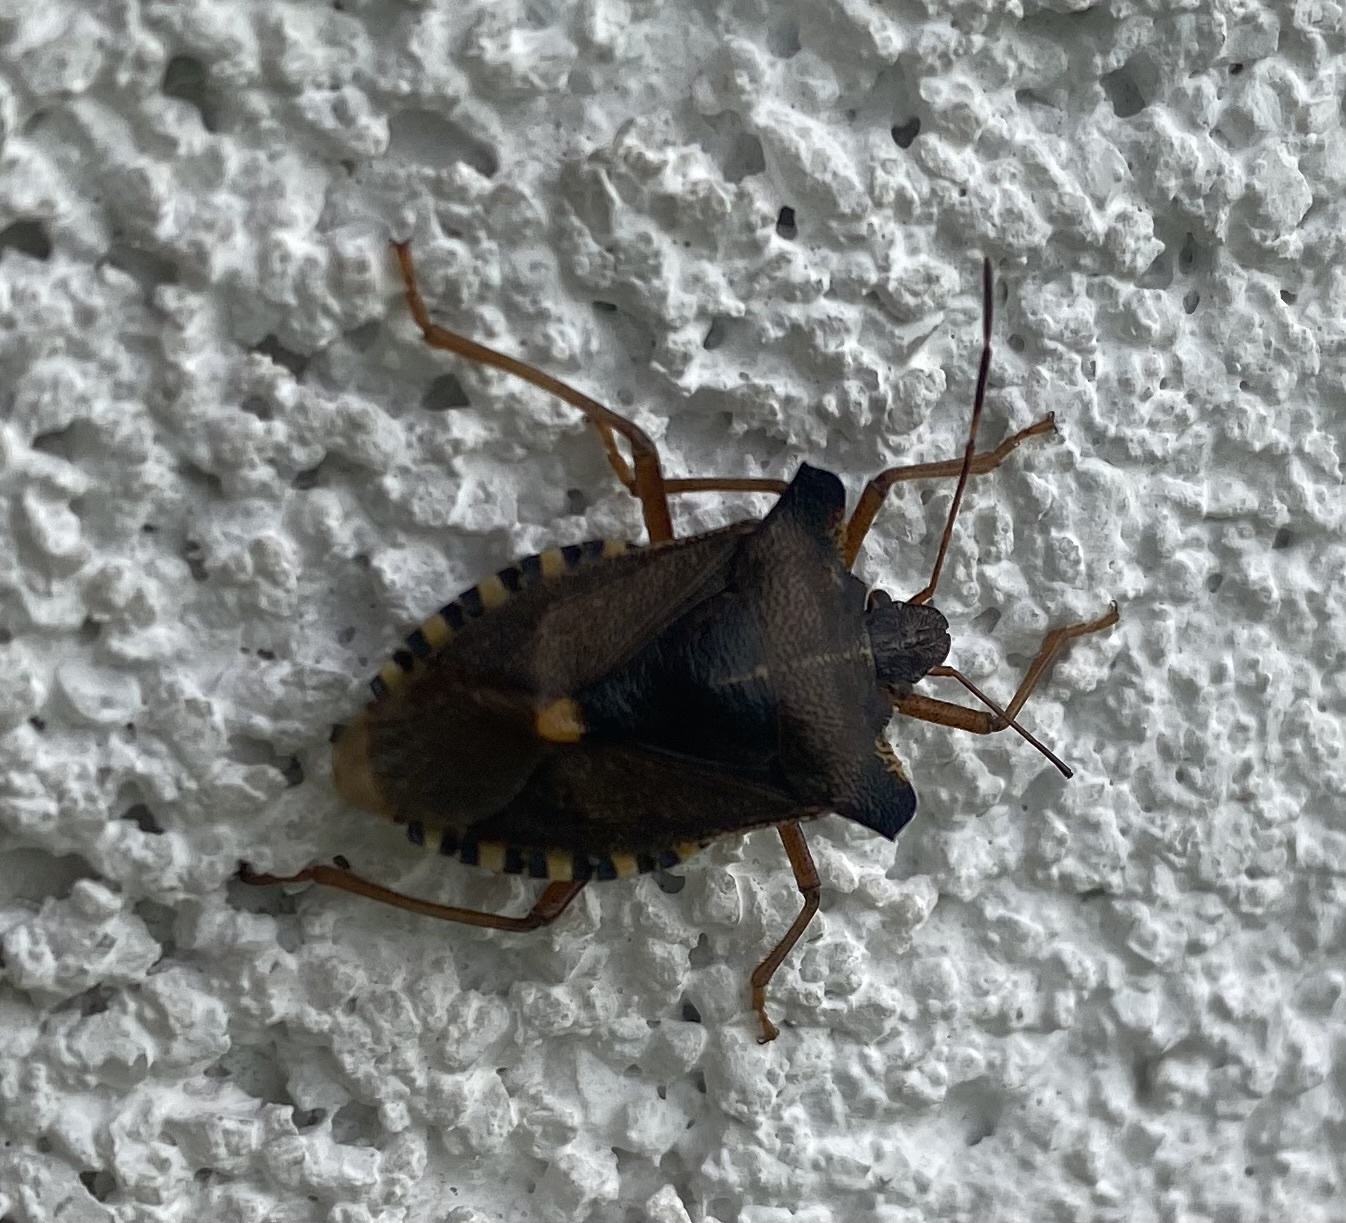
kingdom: Animalia
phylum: Arthropoda
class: Insecta
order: Hemiptera
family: Pentatomidae
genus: Pentatoma
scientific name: Pentatoma rufipes
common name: Forest bug
